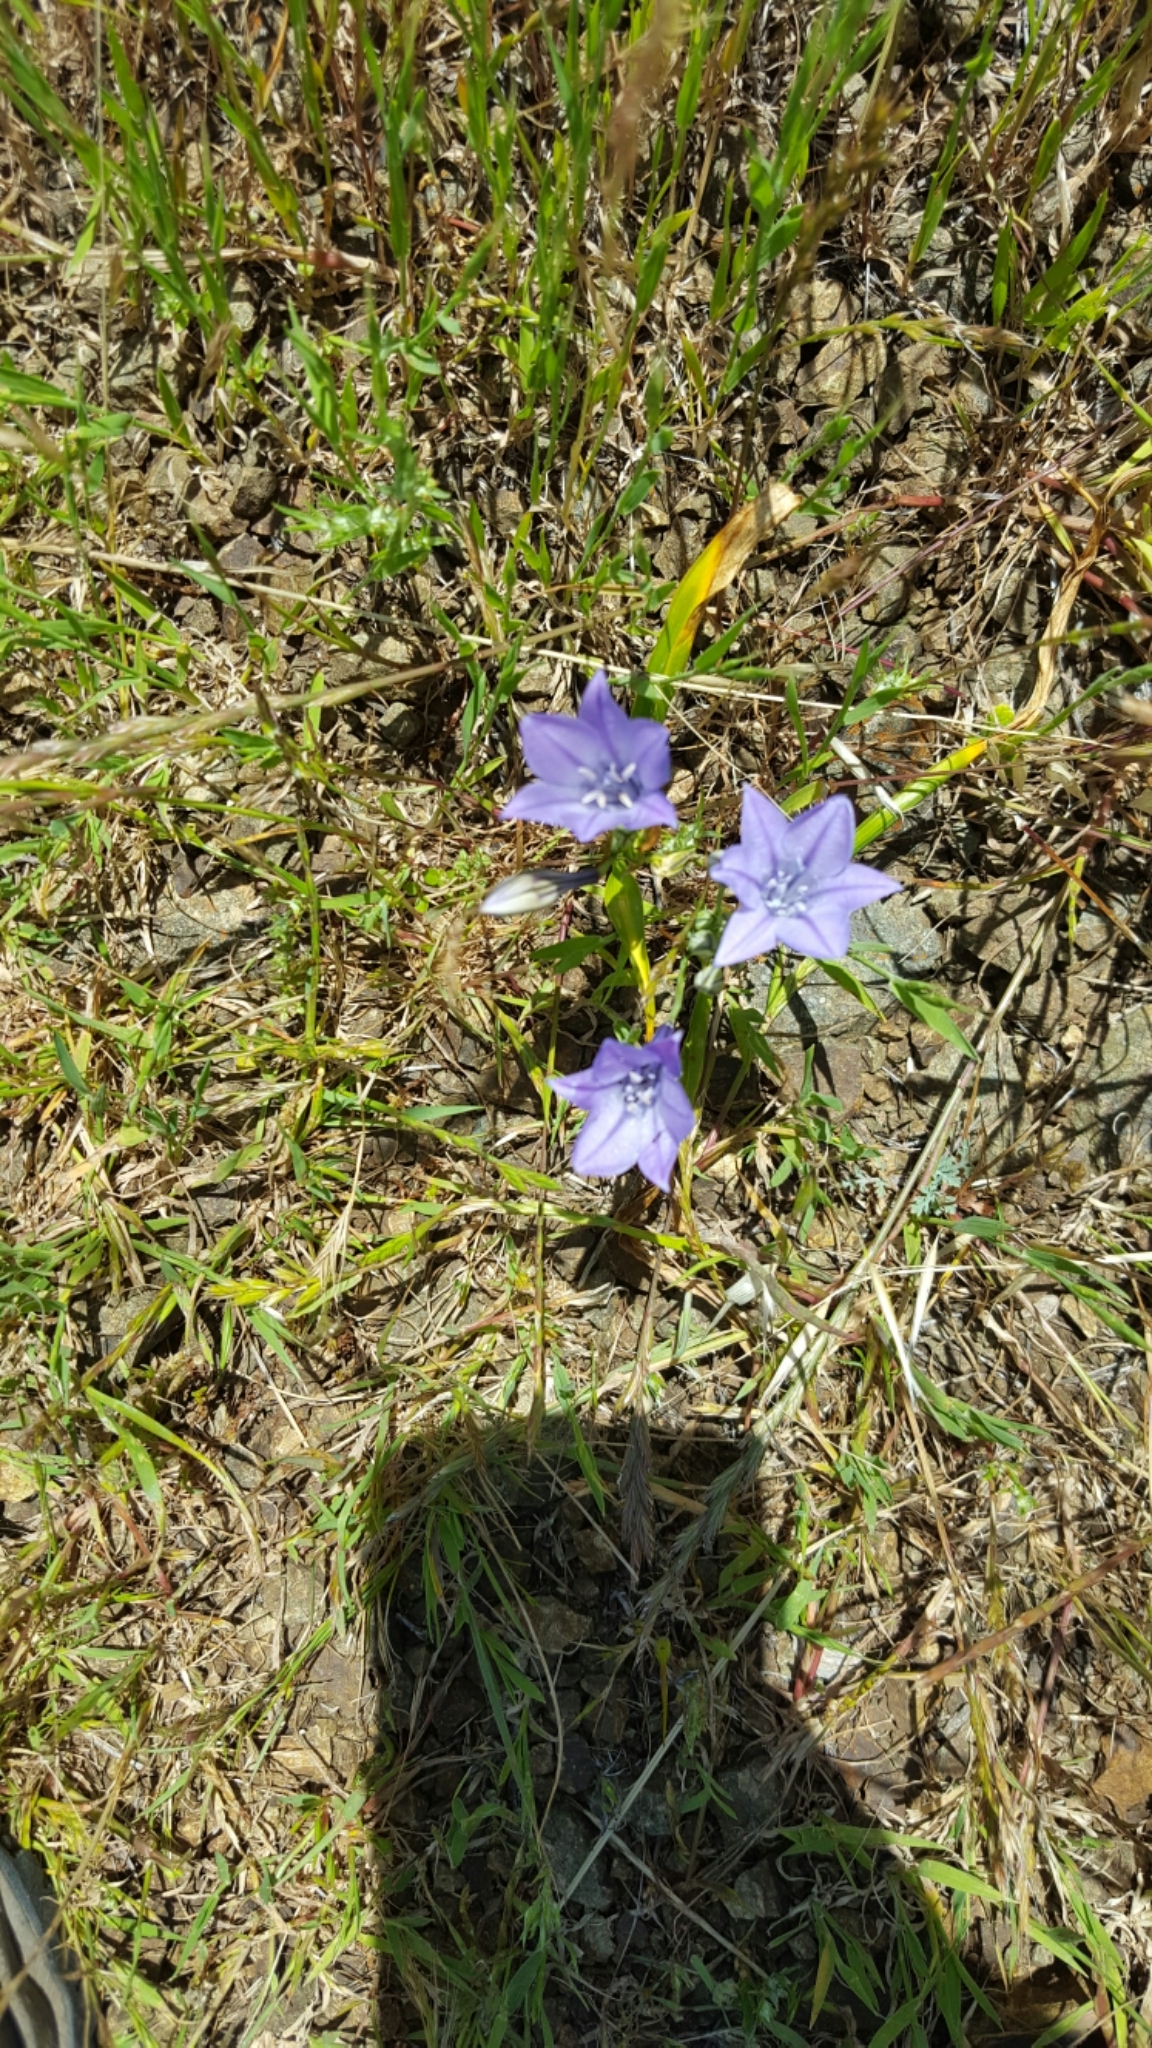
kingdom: Plantae
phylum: Tracheophyta
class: Liliopsida
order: Asparagales
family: Asparagaceae
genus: Triteleia
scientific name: Triteleia laxa
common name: Triplet-lily
